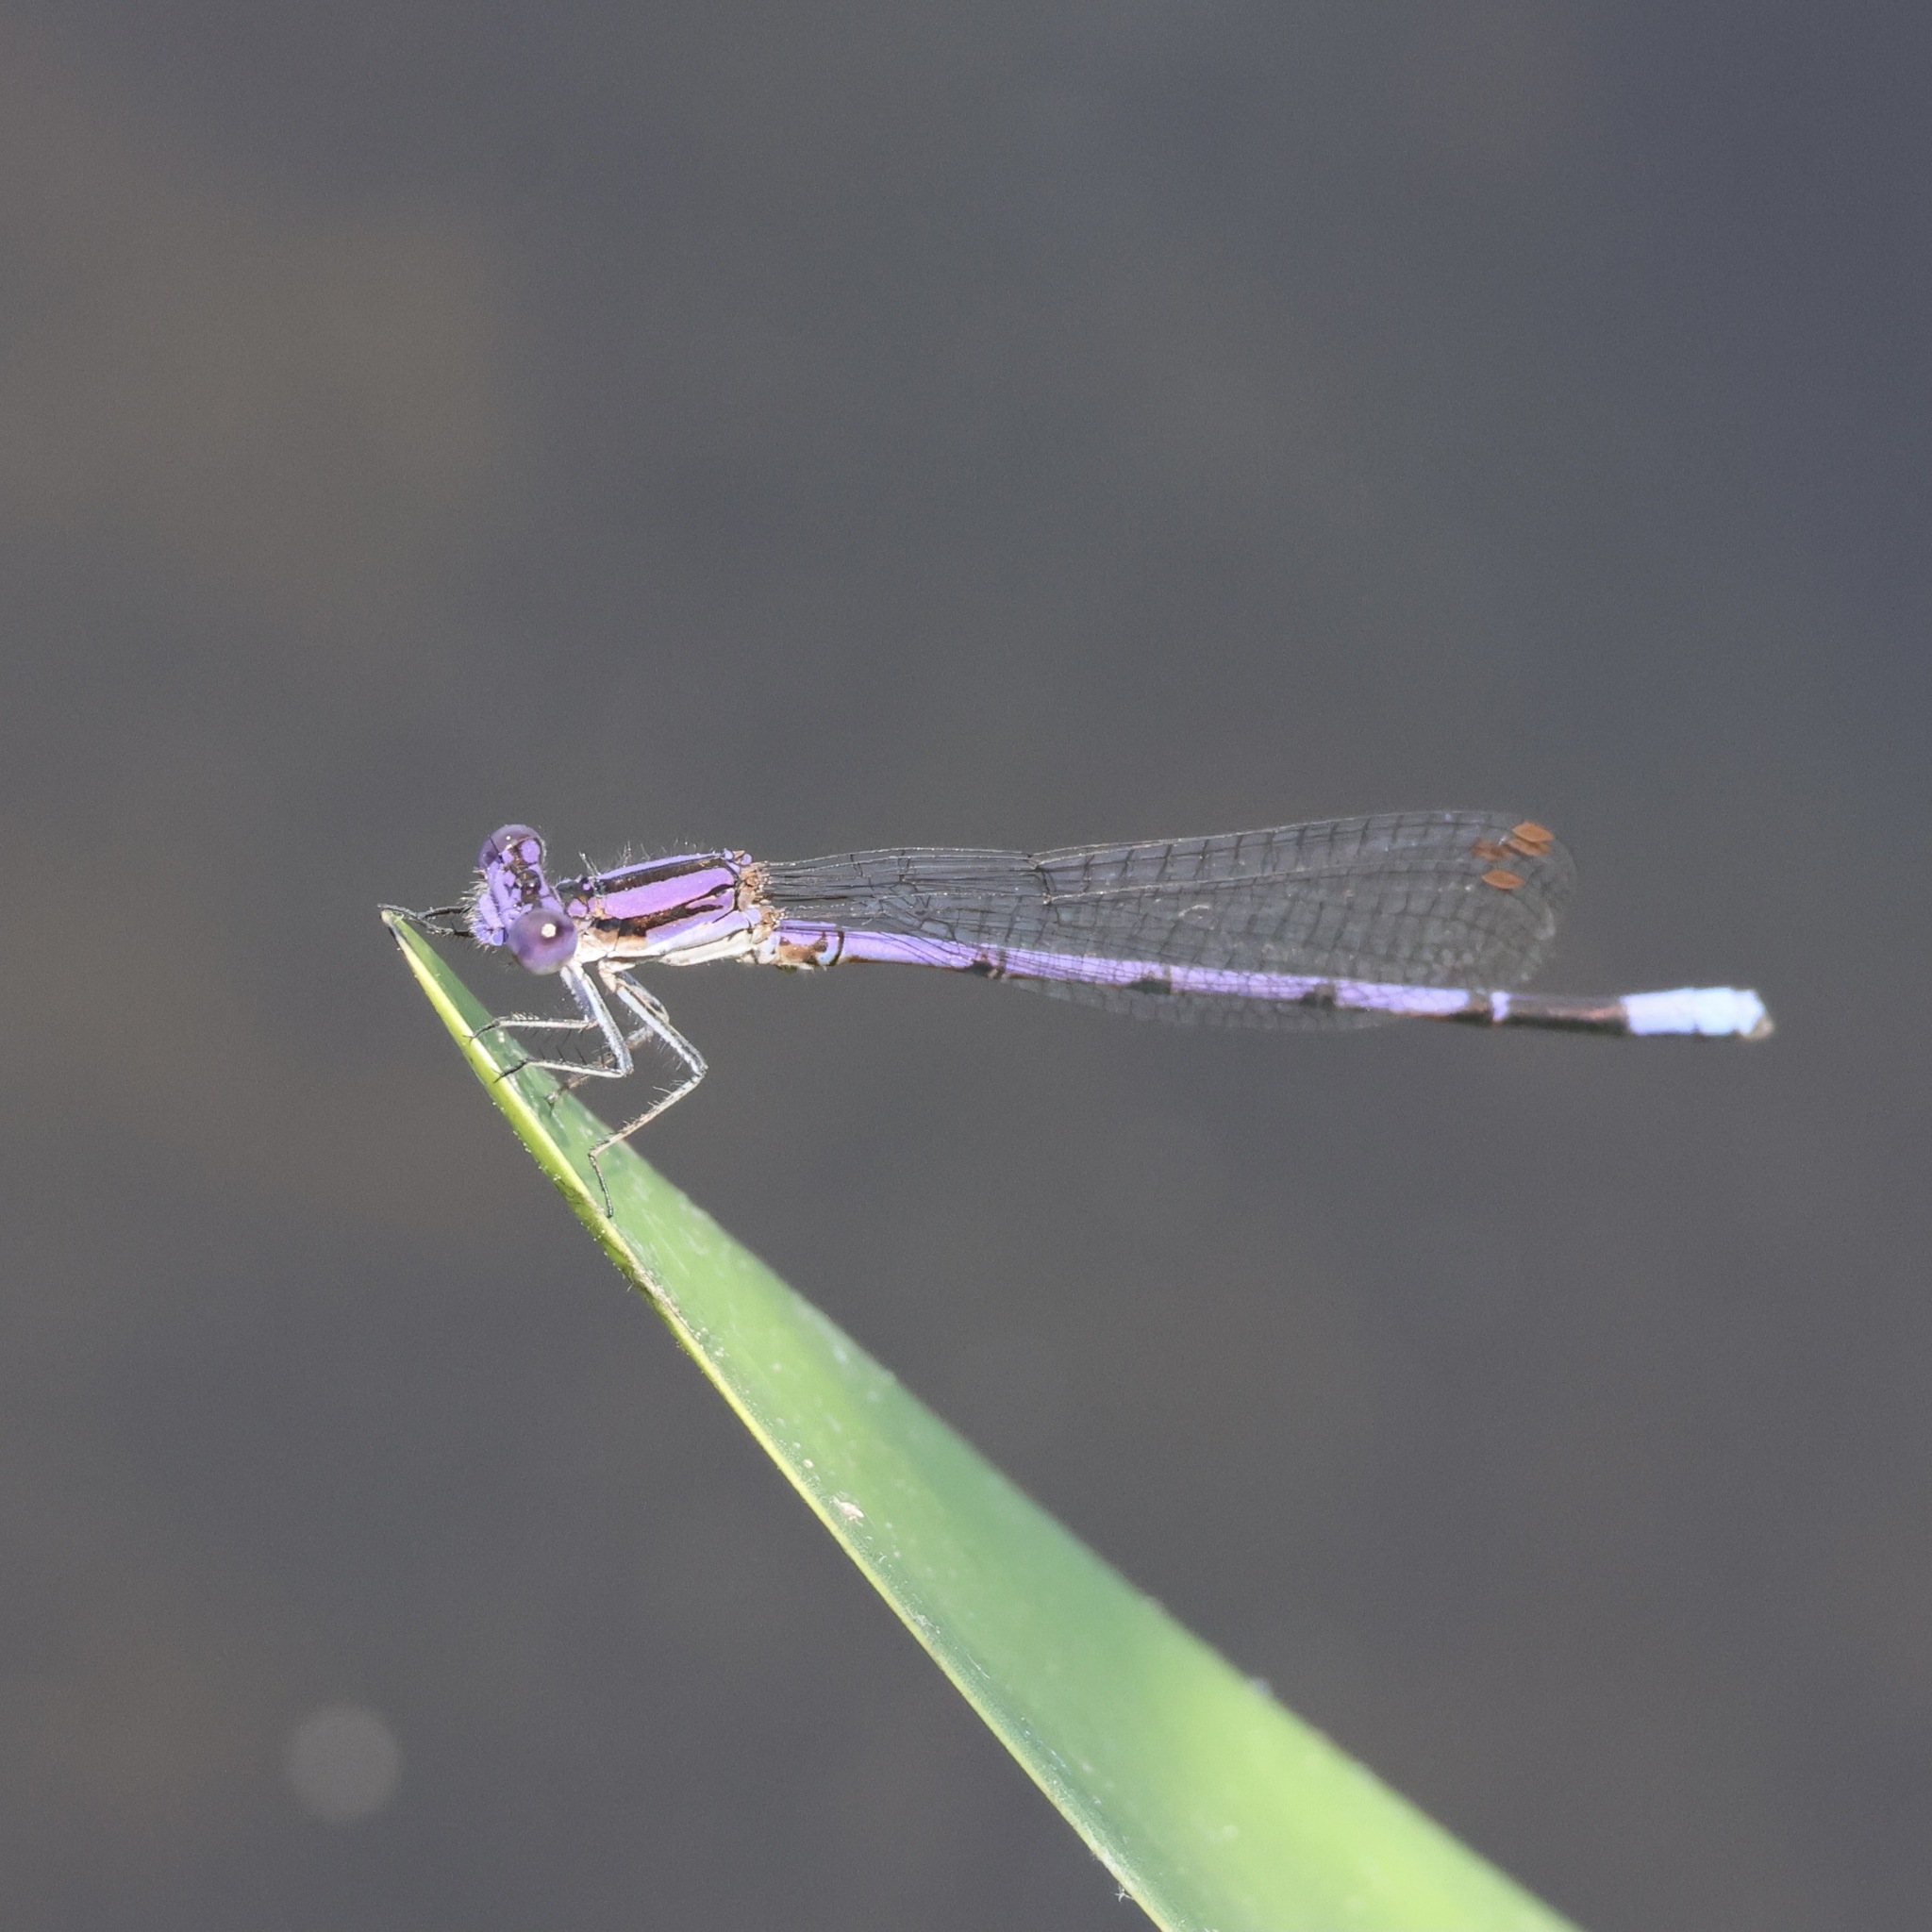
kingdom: Animalia
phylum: Arthropoda
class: Insecta
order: Odonata
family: Coenagrionidae
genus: Argia
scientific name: Argia fumipennis
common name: Variable dancer
